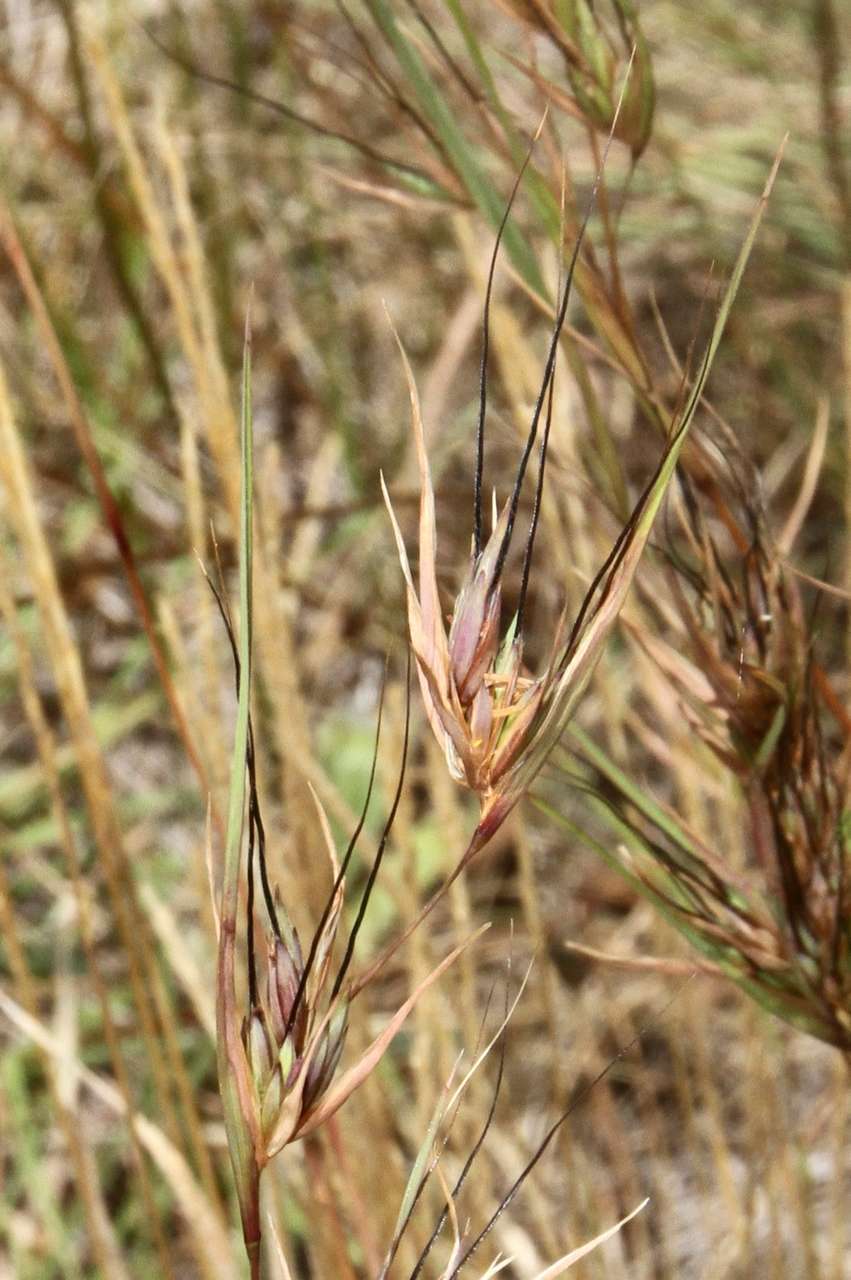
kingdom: Plantae
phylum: Tracheophyta
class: Liliopsida
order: Poales
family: Poaceae
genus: Themeda
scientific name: Themeda triandra
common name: Kangaroo grass
